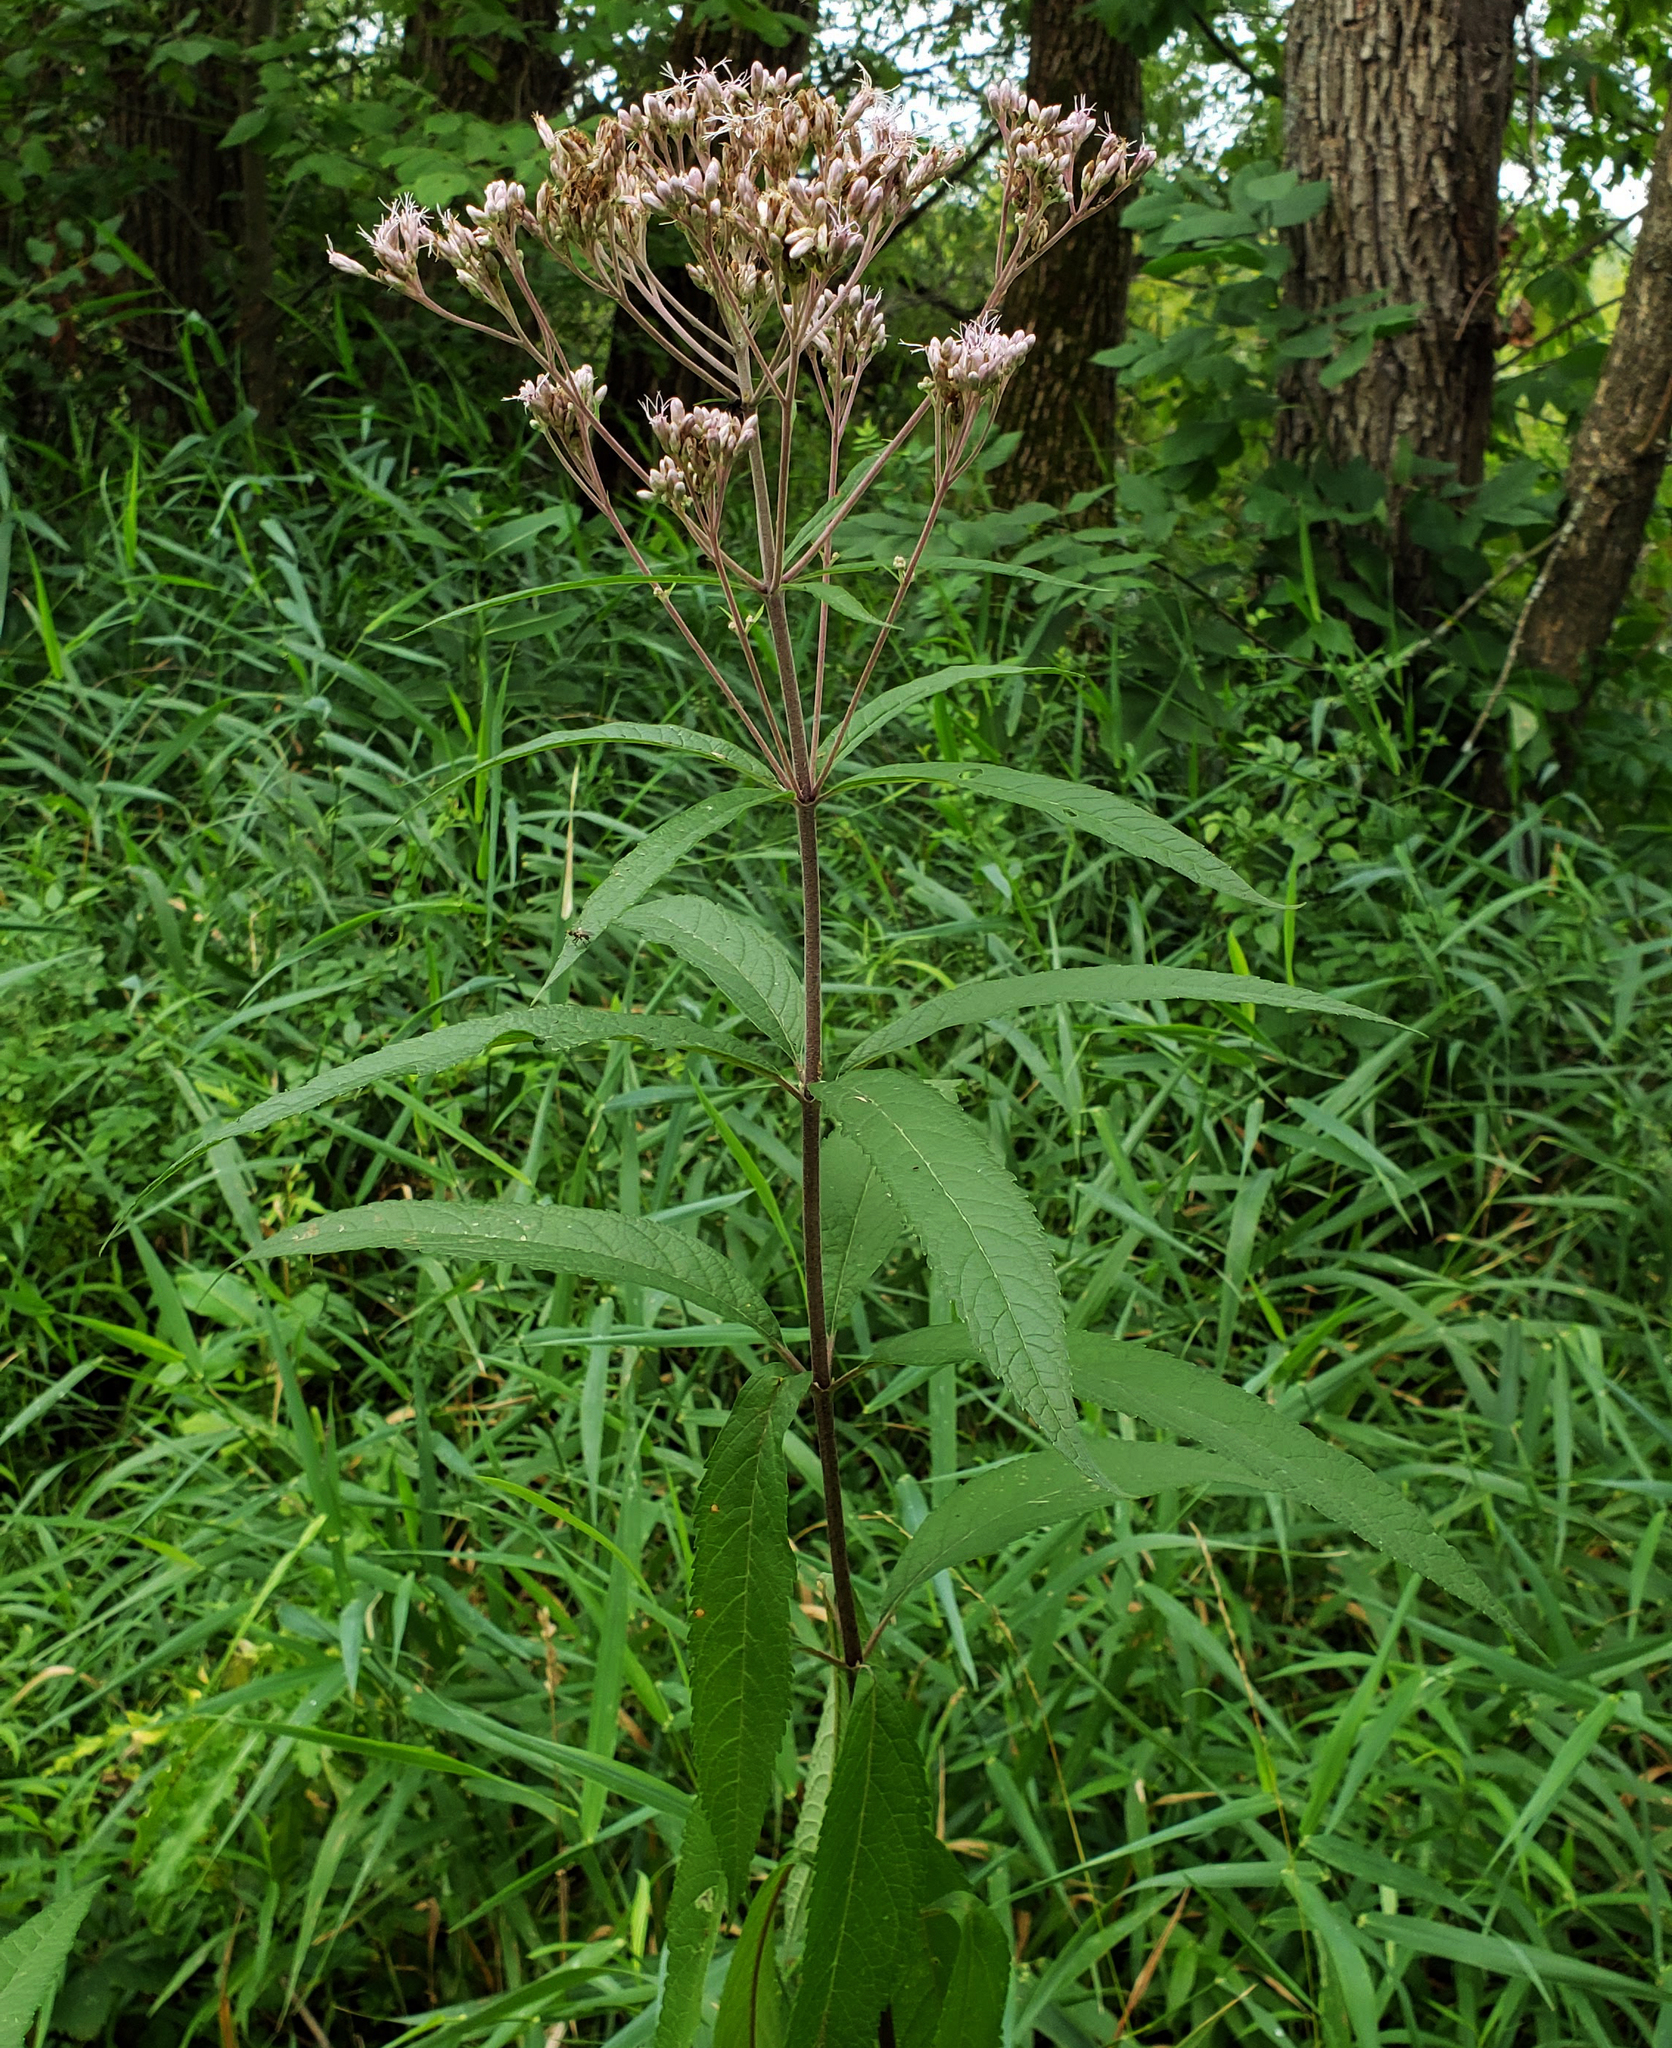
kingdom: Plantae
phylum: Tracheophyta
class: Magnoliopsida
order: Asterales
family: Asteraceae
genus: Eutrochium
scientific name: Eutrochium maculatum
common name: Spotted joe pye weed
